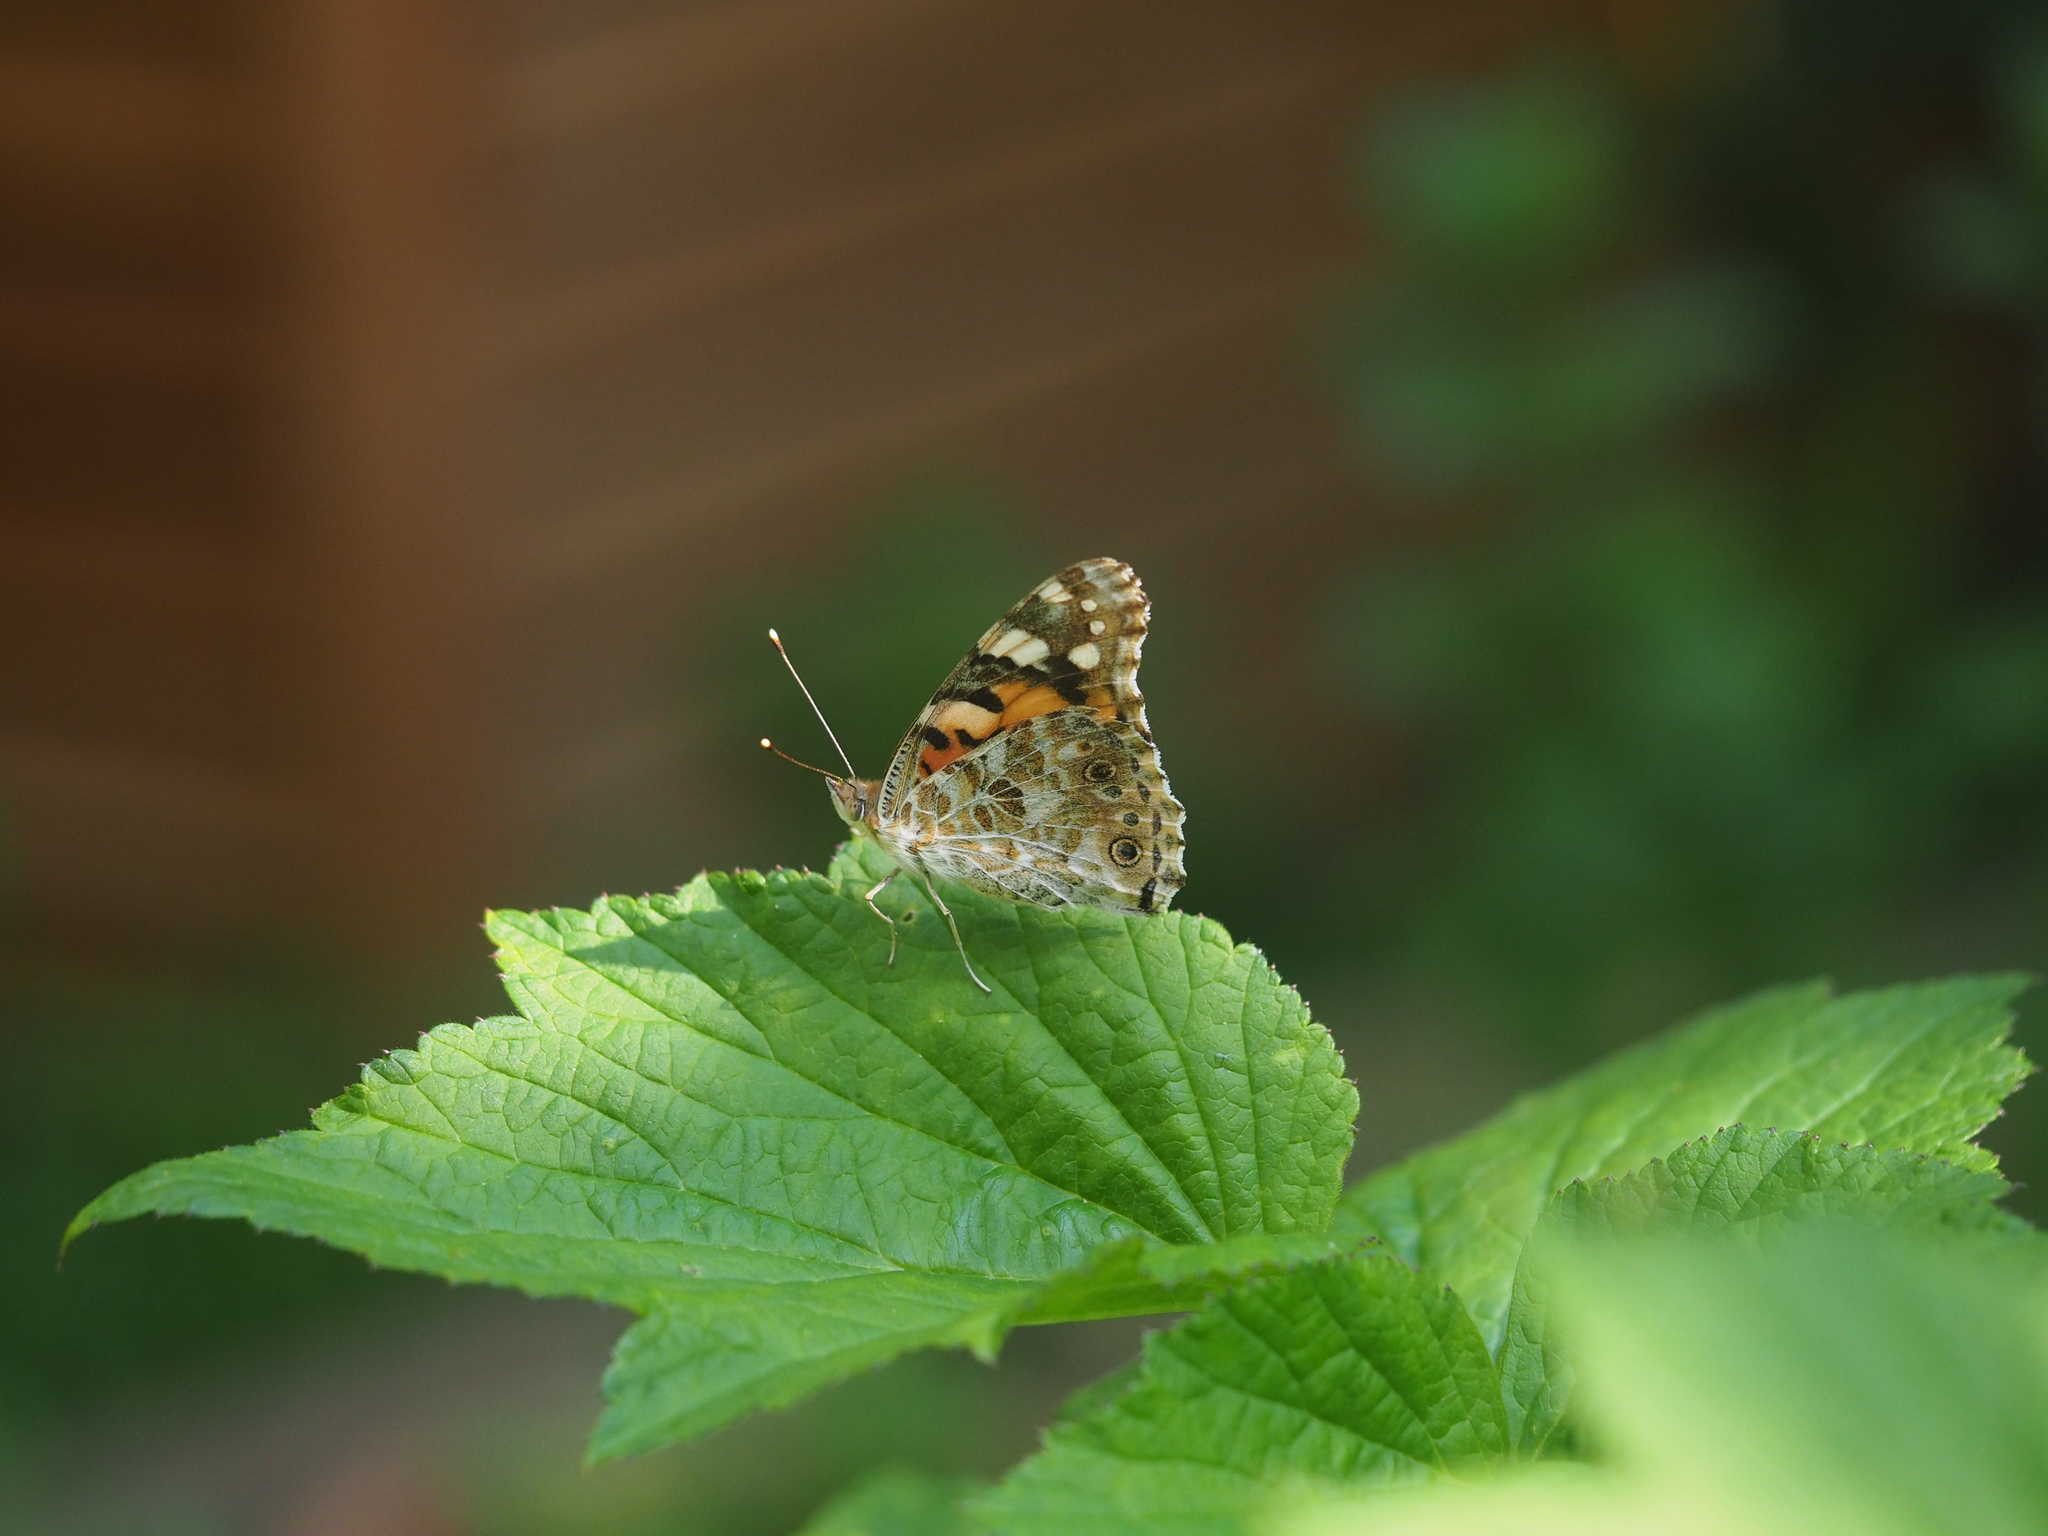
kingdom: Animalia
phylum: Arthropoda
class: Insecta
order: Lepidoptera
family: Nymphalidae
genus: Vanessa
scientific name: Vanessa cardui
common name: Painted lady
